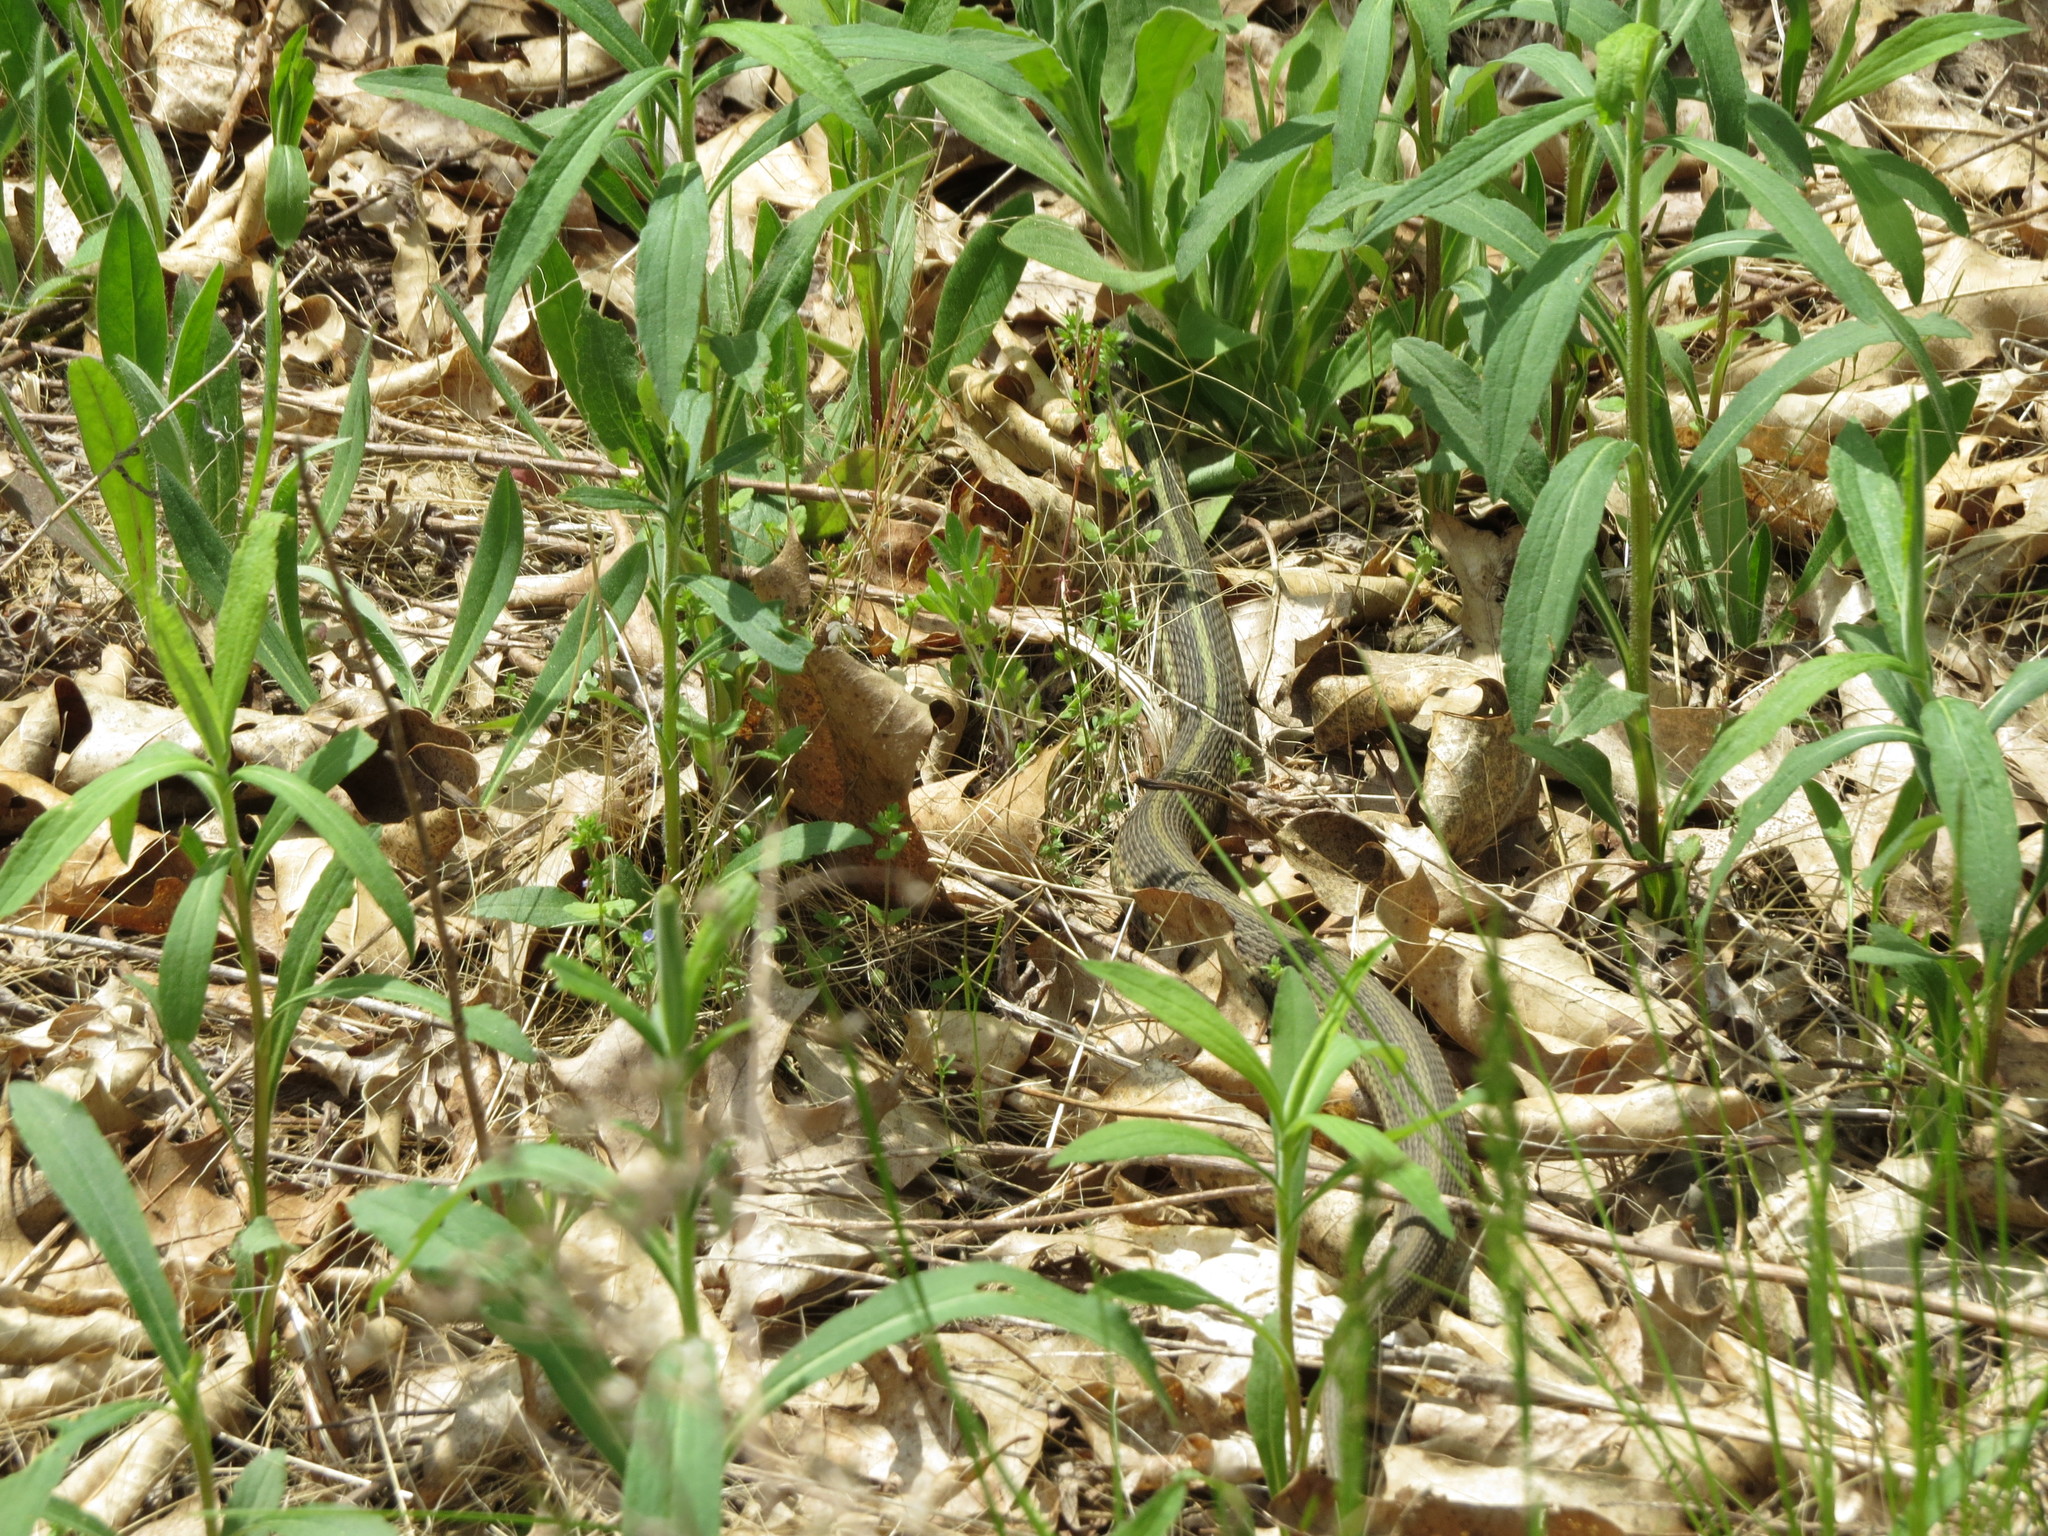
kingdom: Animalia
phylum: Chordata
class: Squamata
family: Colubridae
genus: Thamnophis
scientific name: Thamnophis sirtalis
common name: Common garter snake
